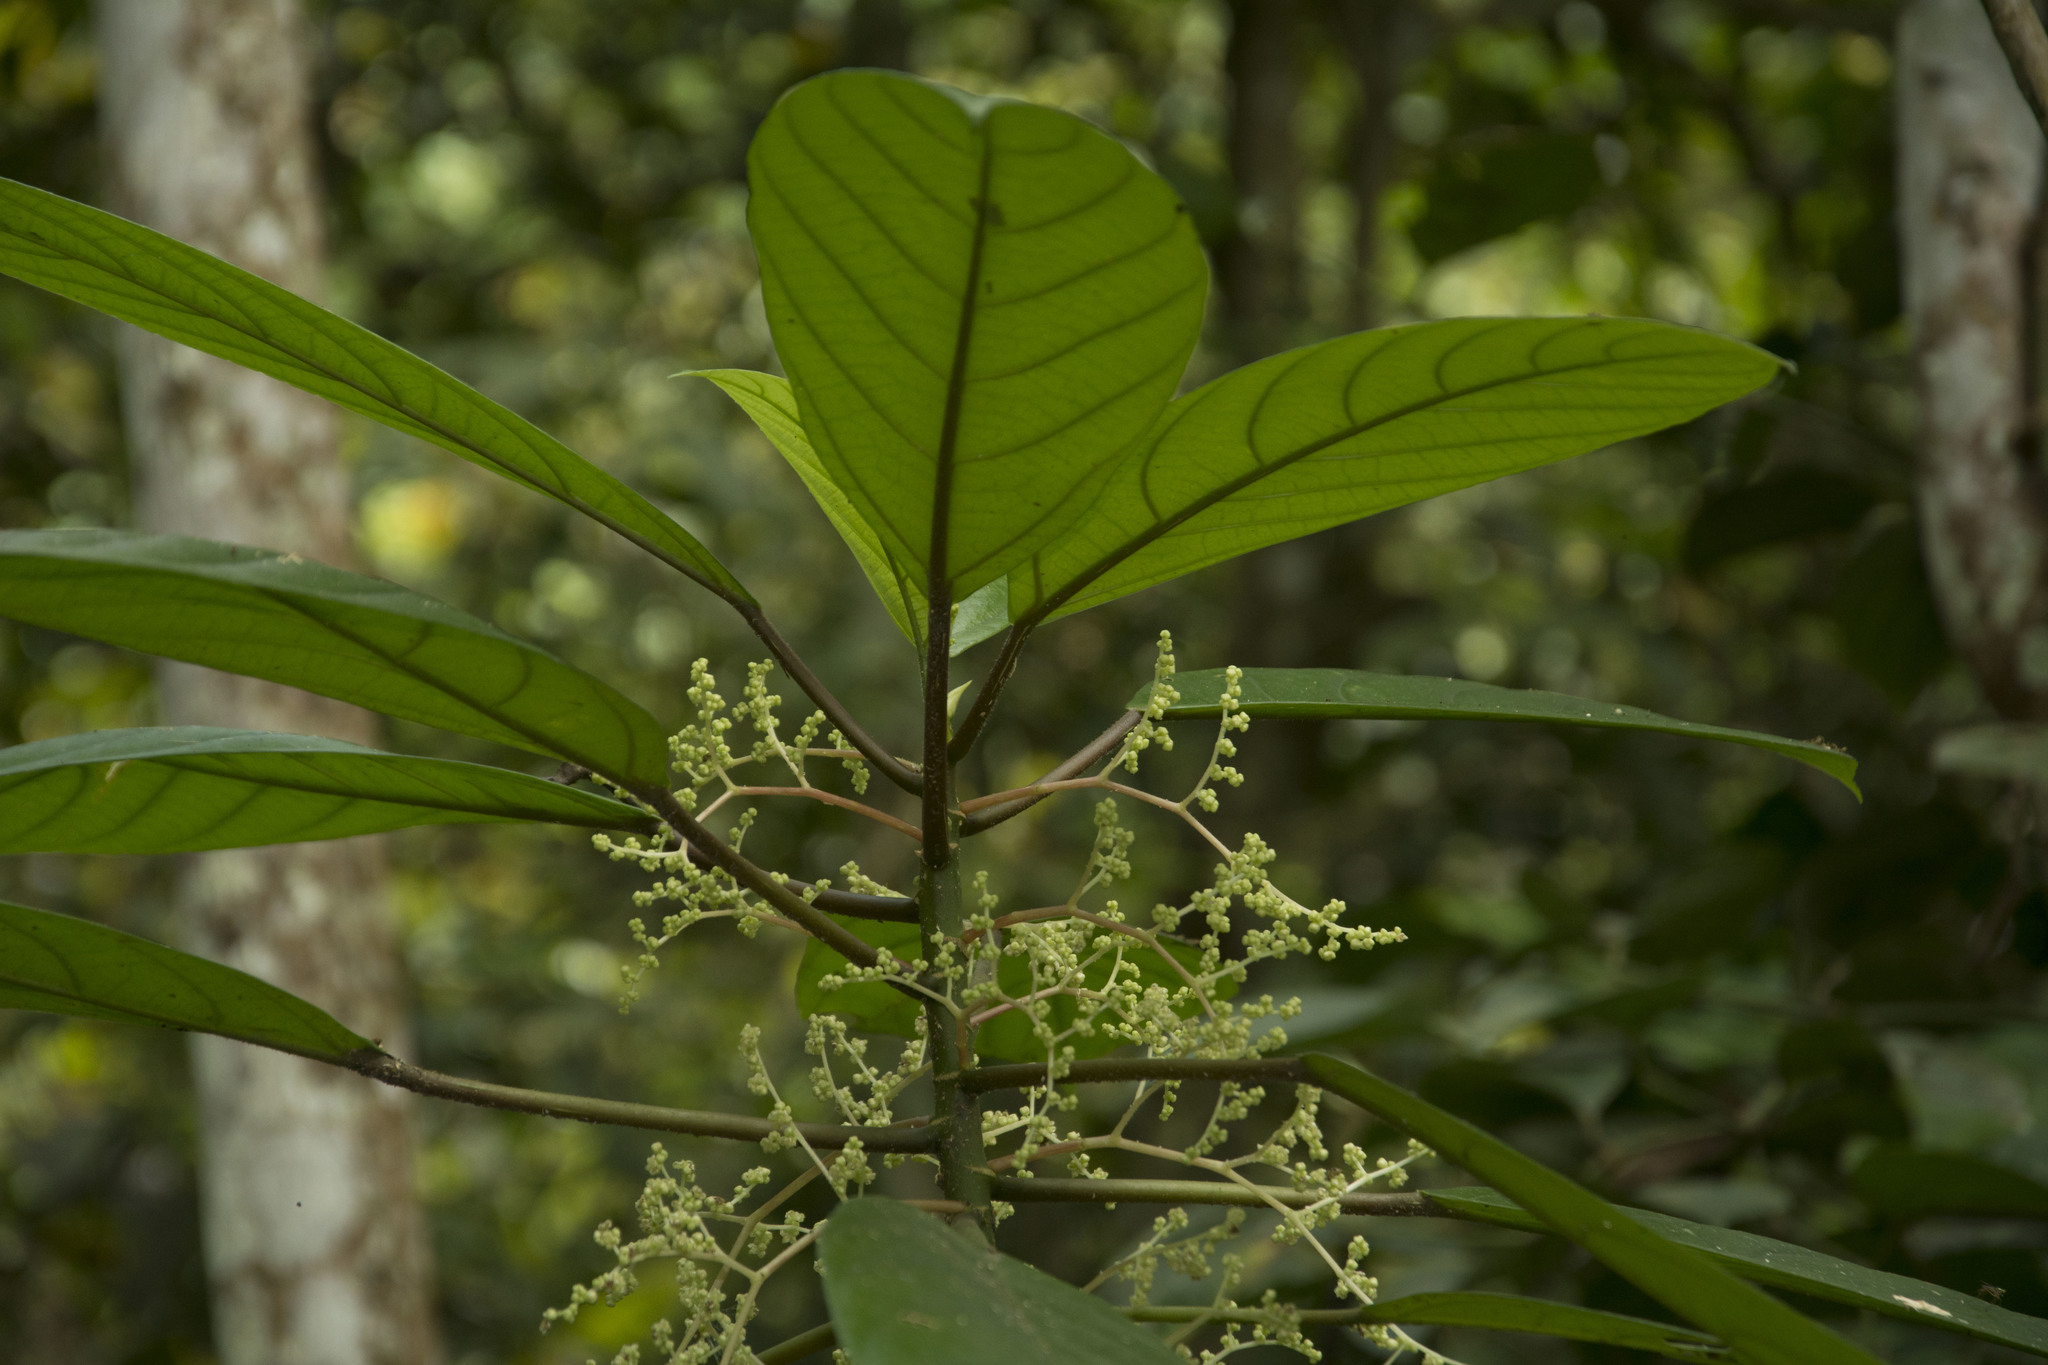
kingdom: Plantae
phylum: Tracheophyta
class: Magnoliopsida
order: Rosales
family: Urticaceae
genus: Dendrocnide
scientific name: Dendrocnide sinuata
